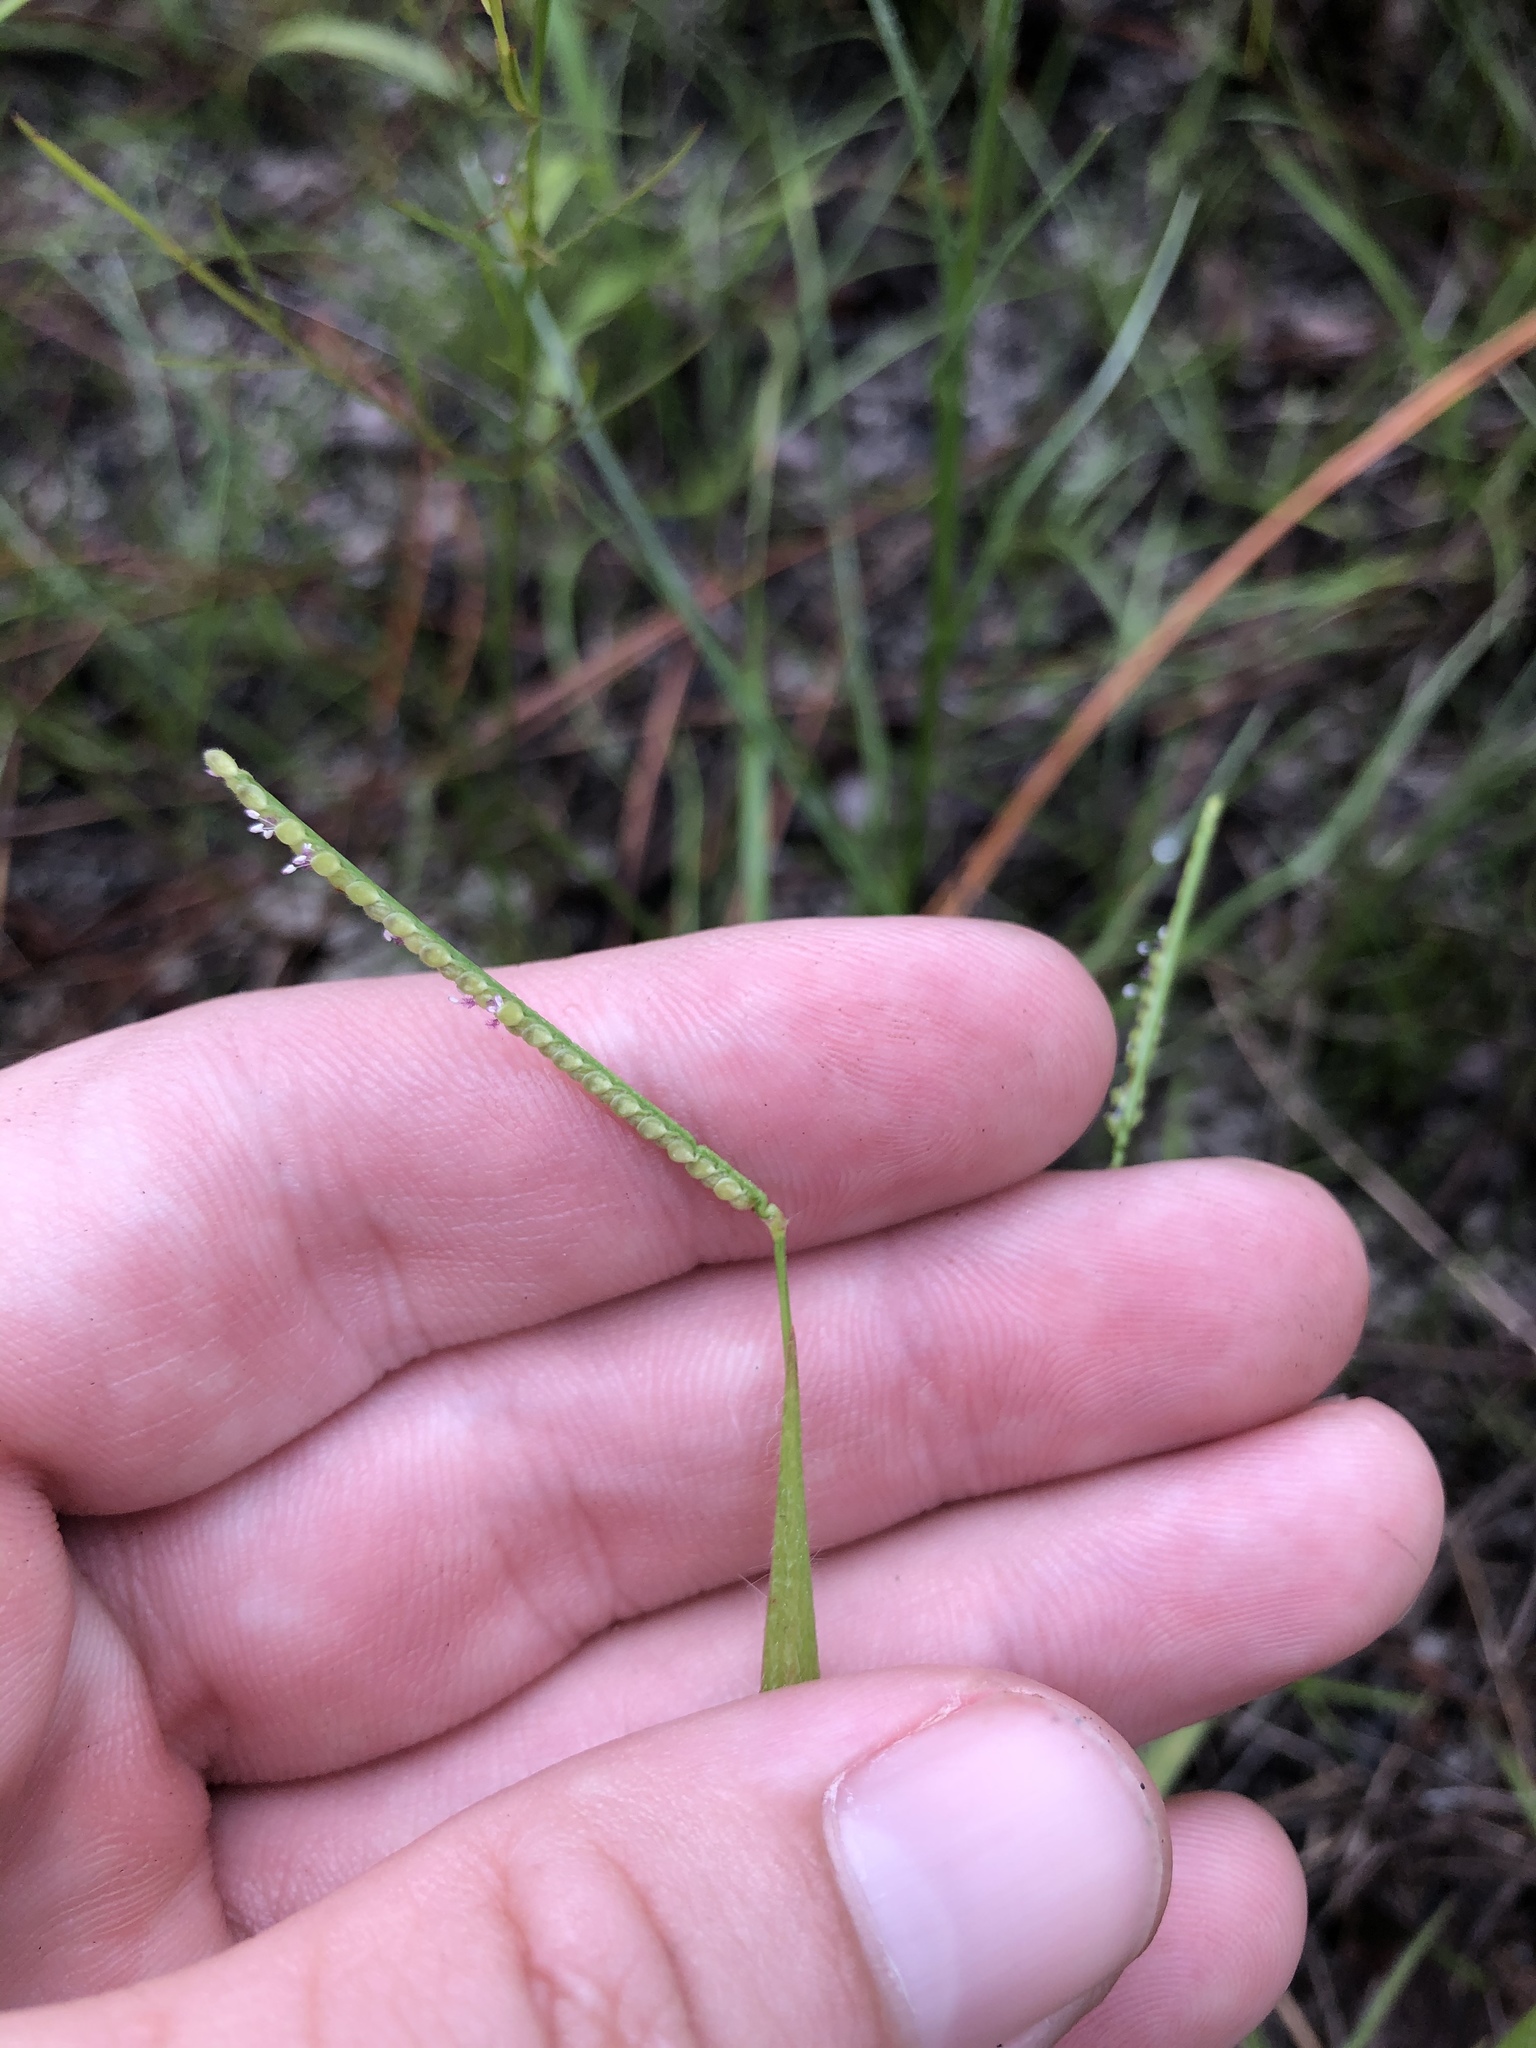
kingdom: Plantae
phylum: Tracheophyta
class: Liliopsida
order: Poales
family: Poaceae
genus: Paspalum
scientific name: Paspalum setaceum
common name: Slender paspalum
